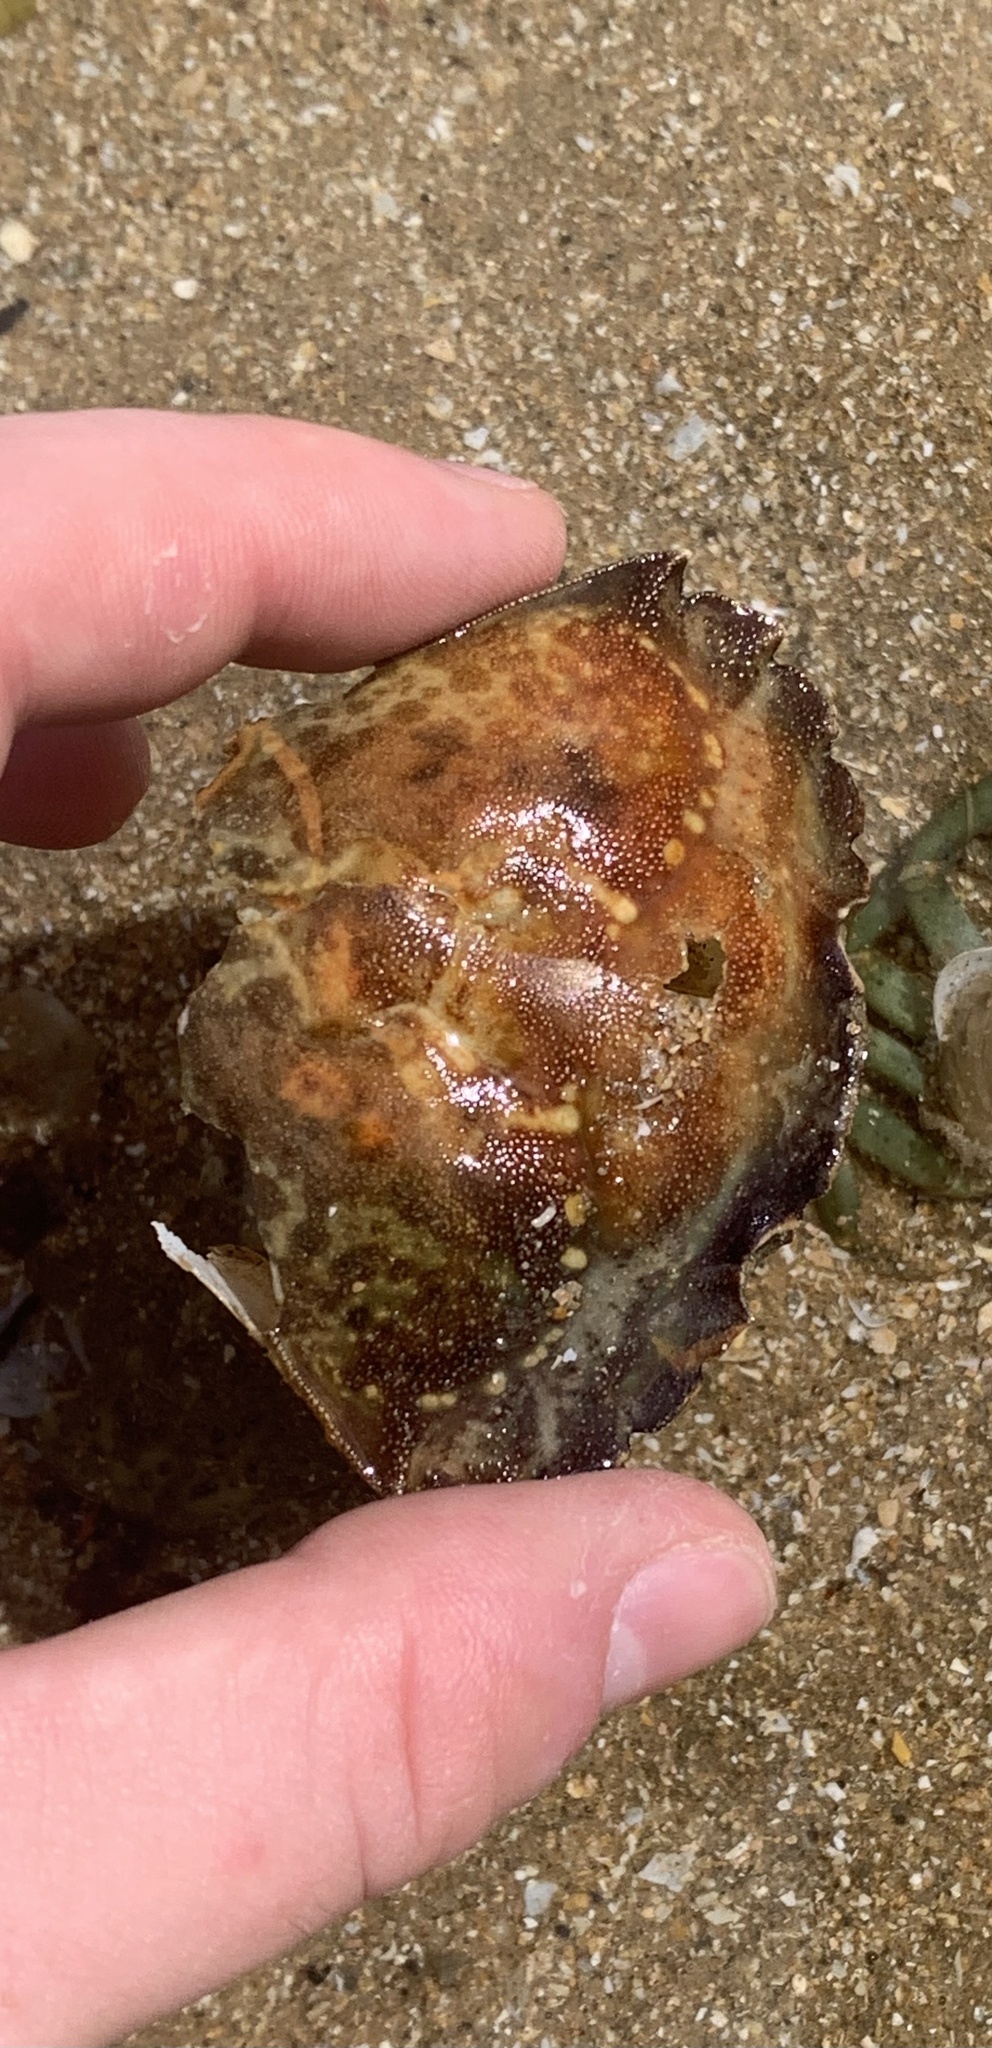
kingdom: Animalia
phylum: Arthropoda
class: Malacostraca
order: Decapoda
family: Carcinidae
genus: Carcinus
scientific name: Carcinus maenas
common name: European green crab
